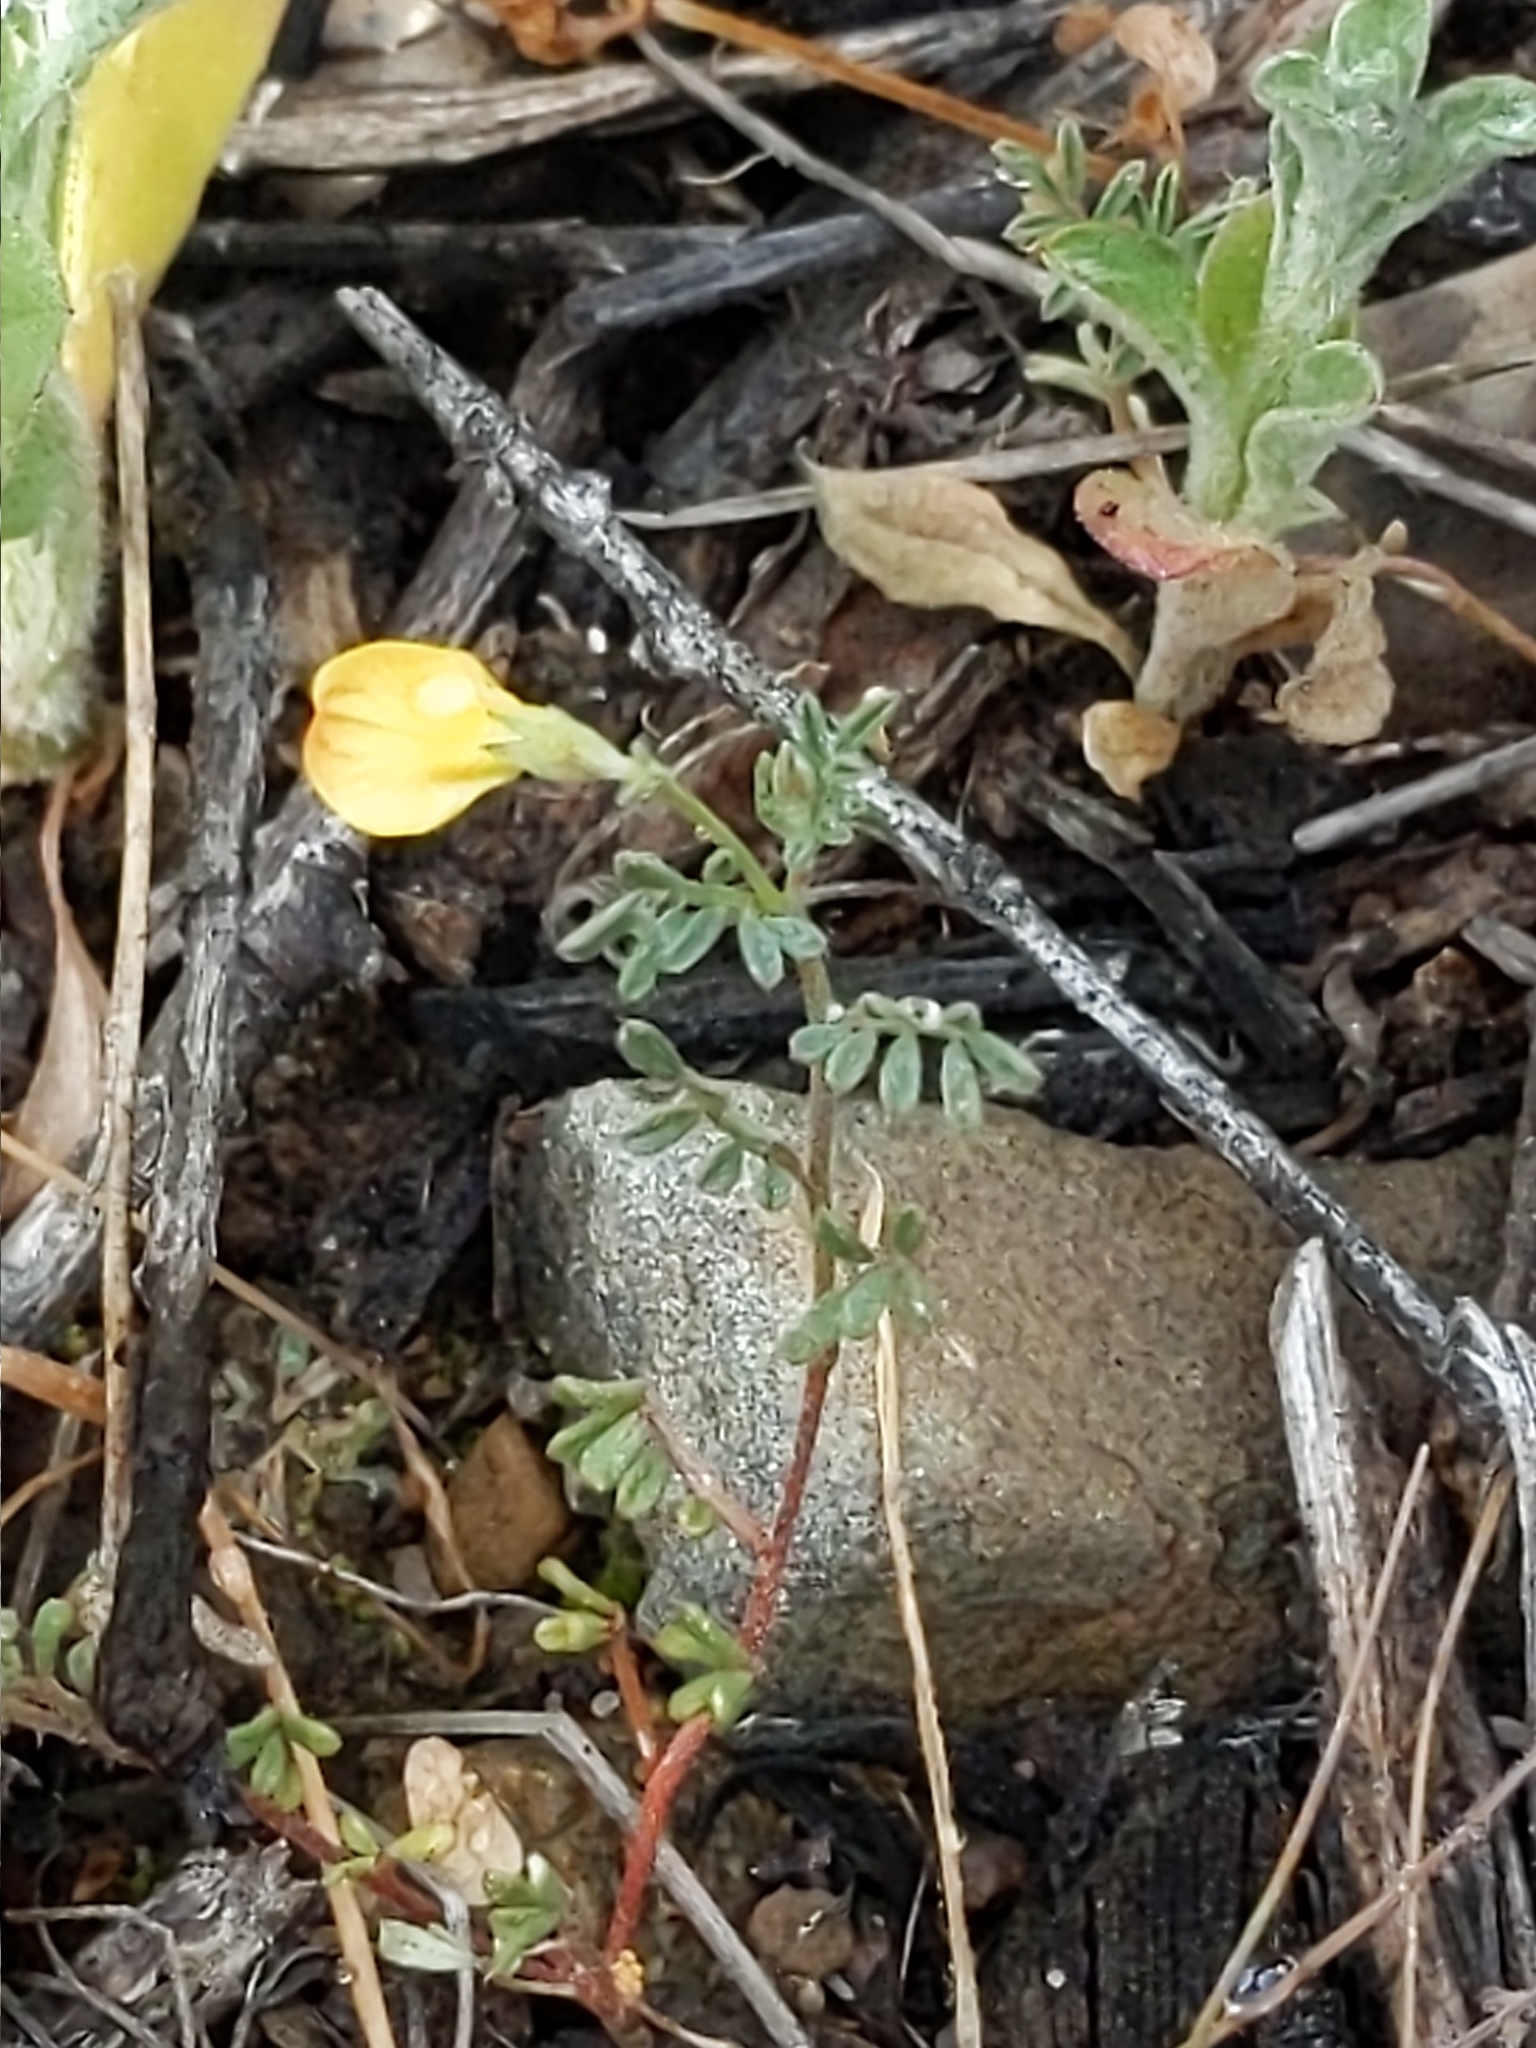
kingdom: Plantae
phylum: Tracheophyta
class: Magnoliopsida
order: Fabales
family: Fabaceae
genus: Acmispon
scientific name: Acmispon strigosus
